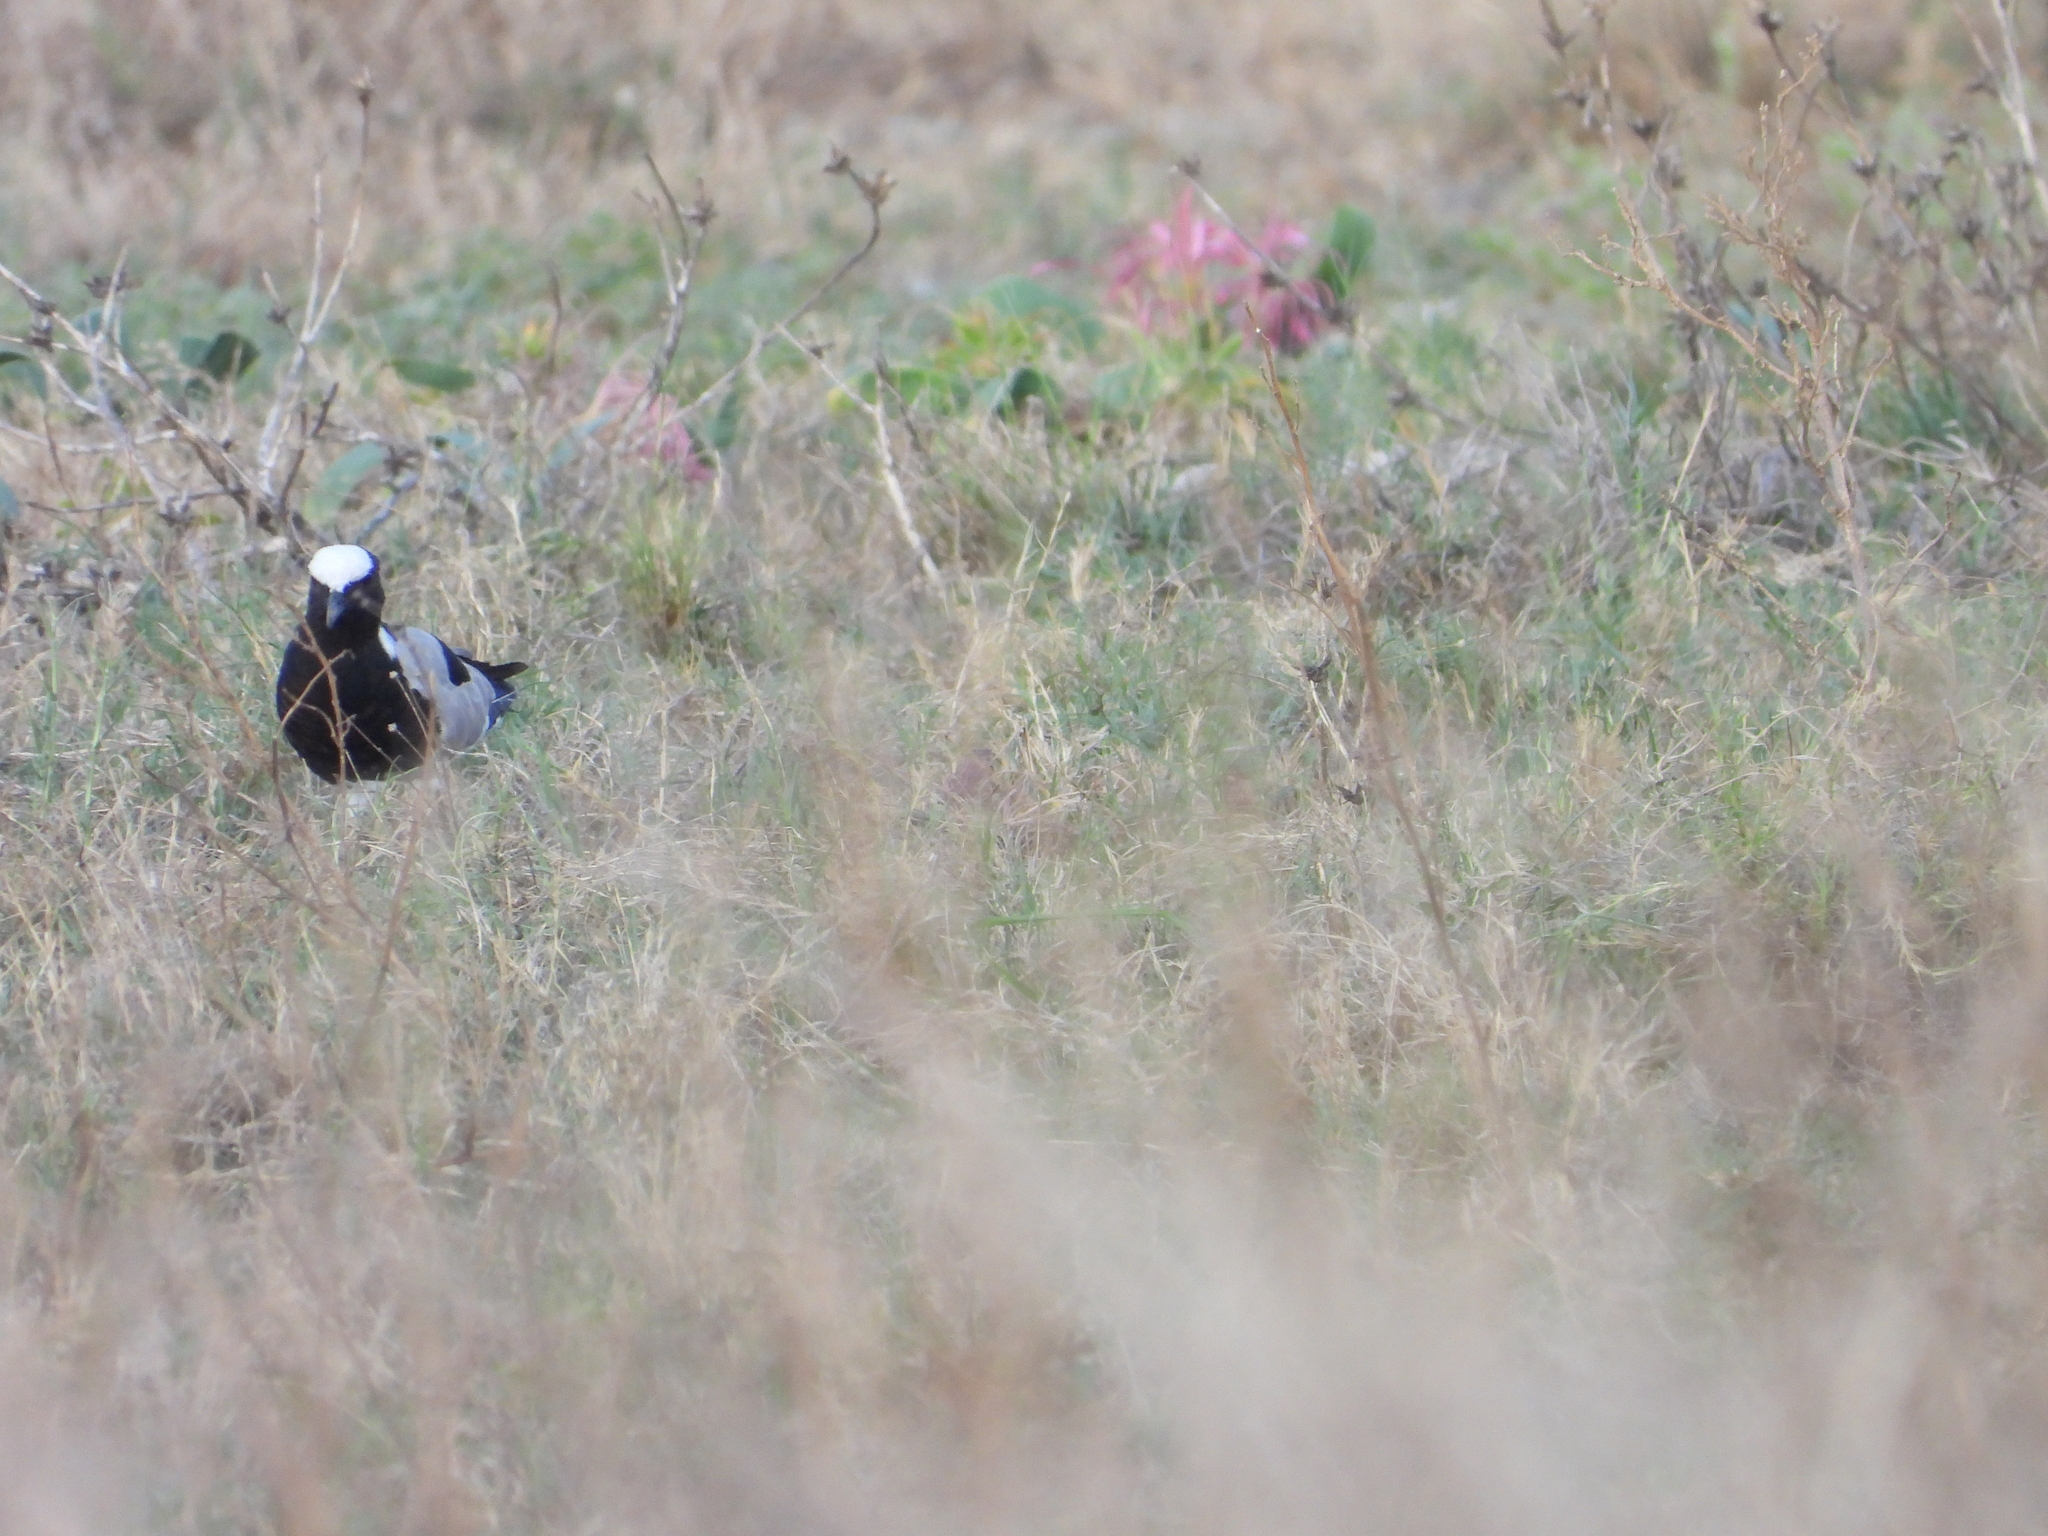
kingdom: Animalia
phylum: Chordata
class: Aves
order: Charadriiformes
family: Charadriidae
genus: Vanellus
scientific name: Vanellus armatus
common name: Blacksmith lapwing
